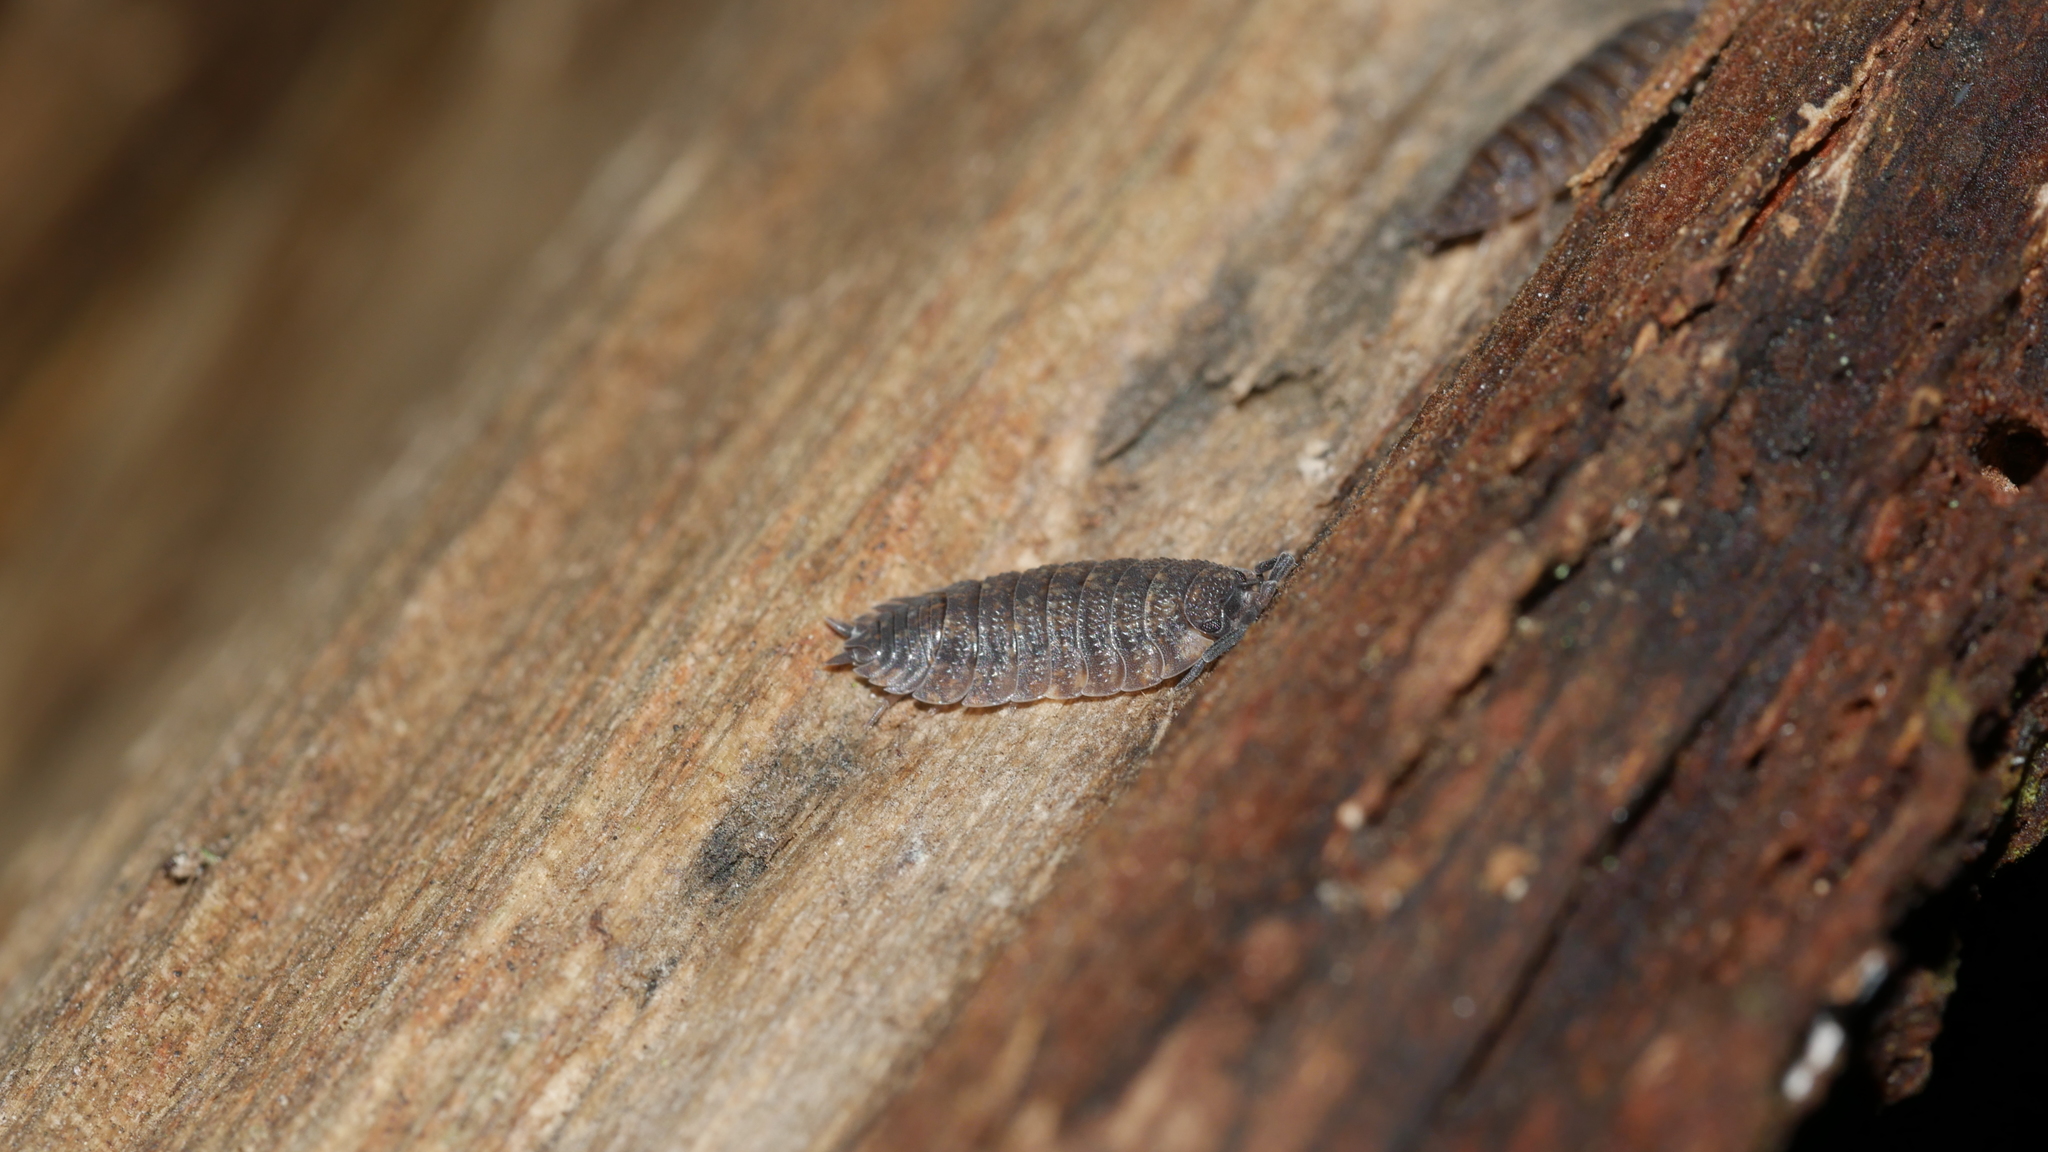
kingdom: Animalia
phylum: Arthropoda
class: Malacostraca
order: Isopoda
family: Porcellionidae
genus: Porcellio
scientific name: Porcellio scaber
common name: Common rough woodlouse
